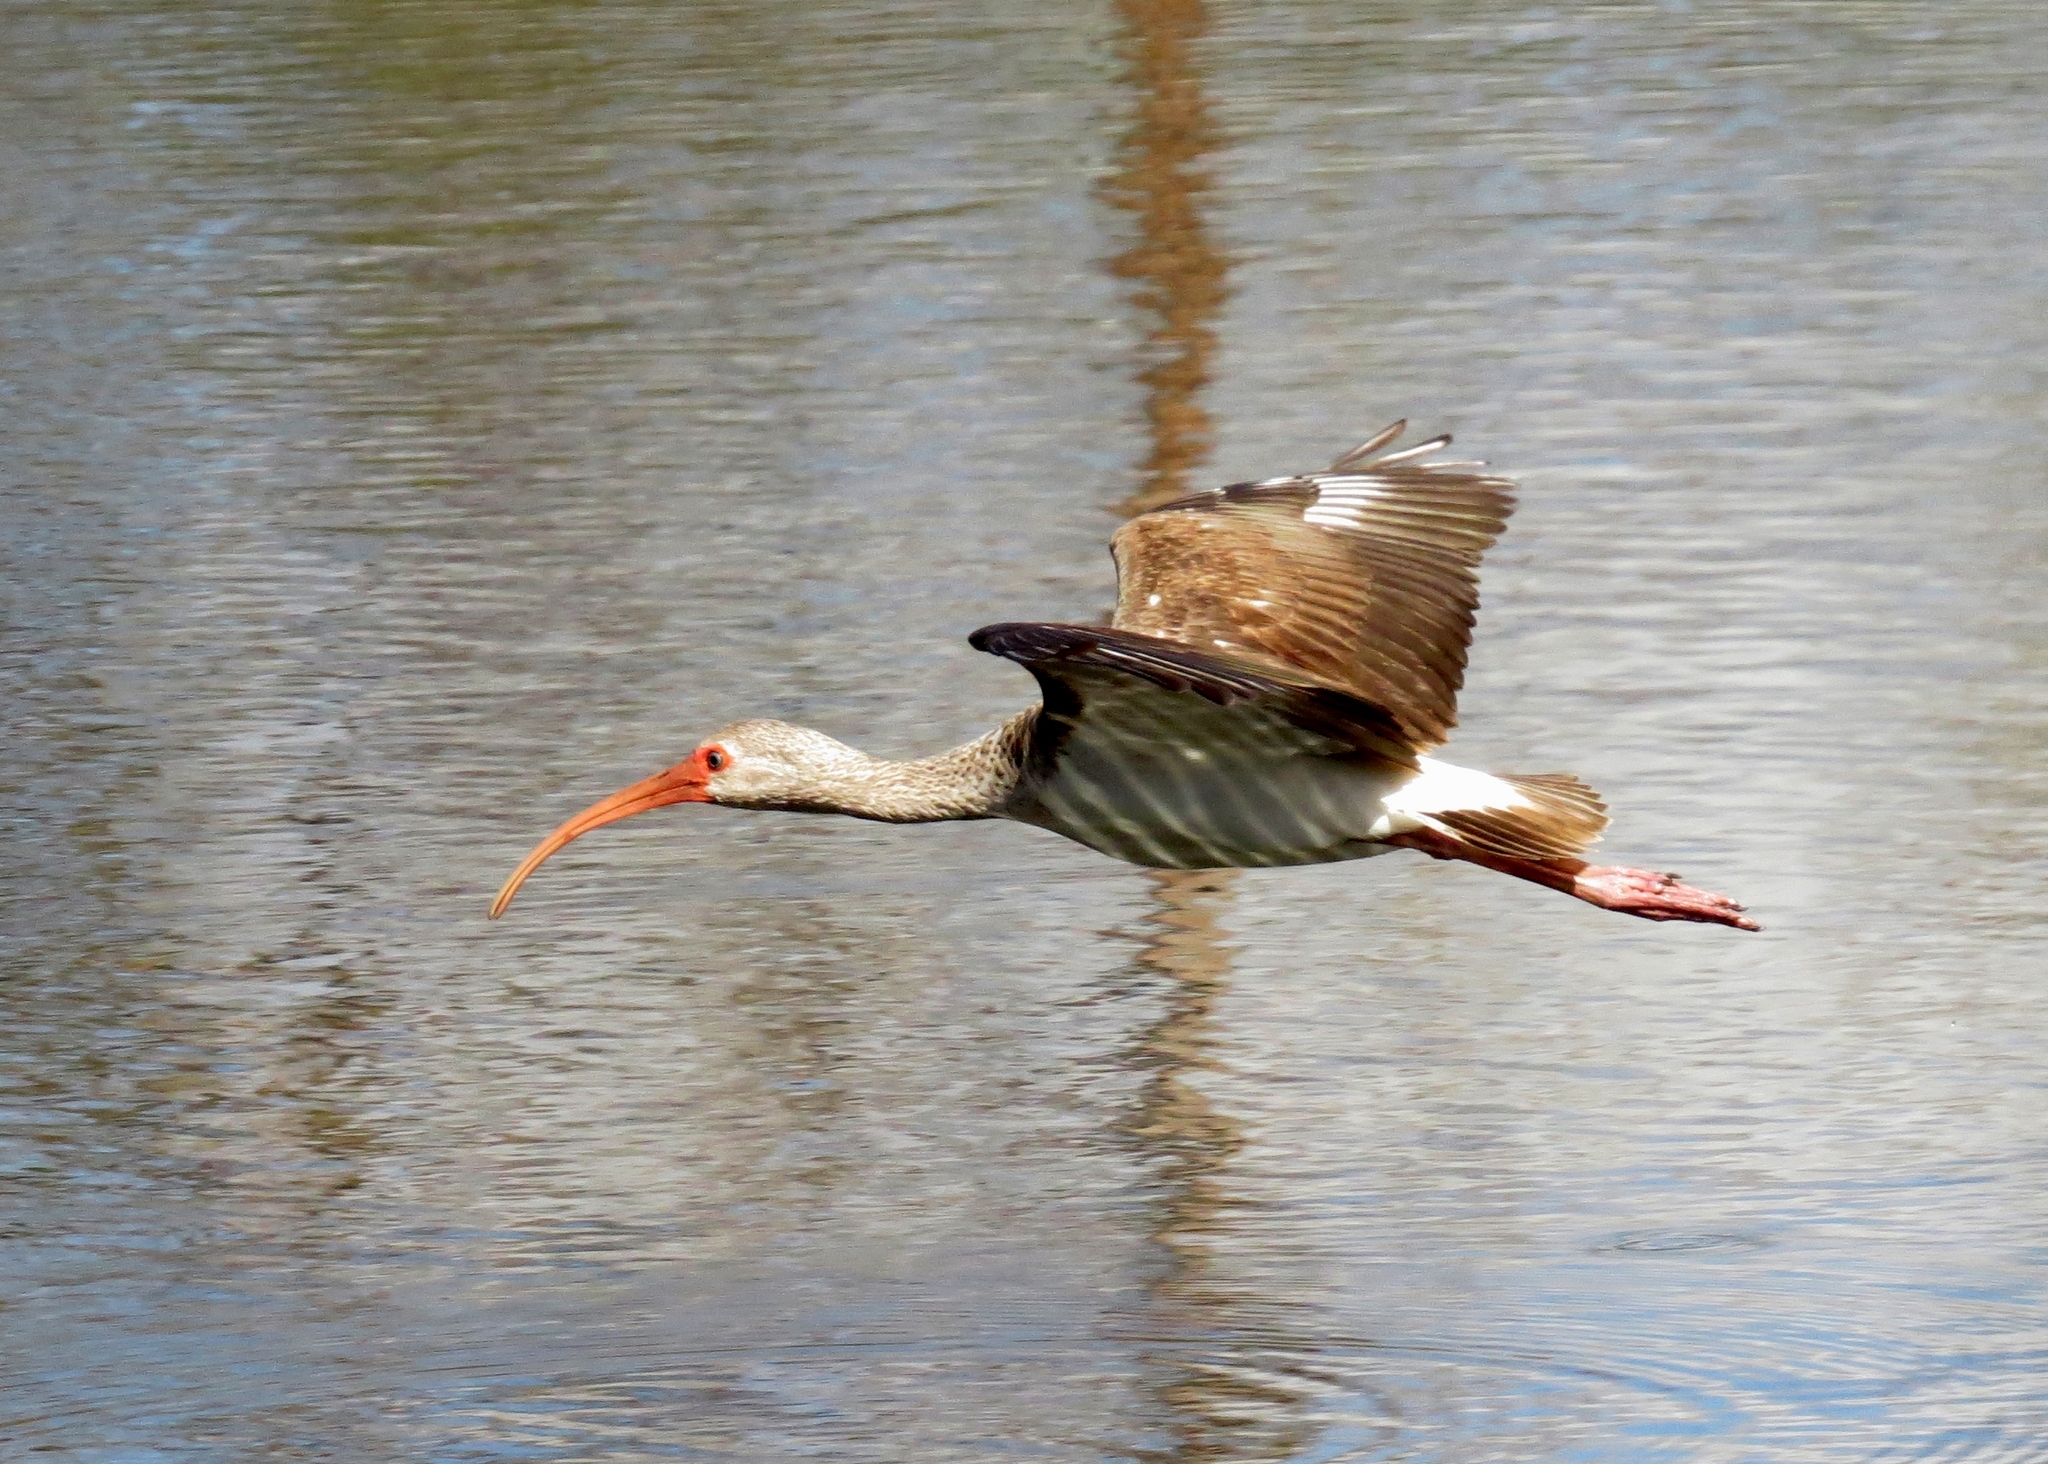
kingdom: Animalia
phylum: Chordata
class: Aves
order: Pelecaniformes
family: Threskiornithidae
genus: Eudocimus
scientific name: Eudocimus albus
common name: White ibis
